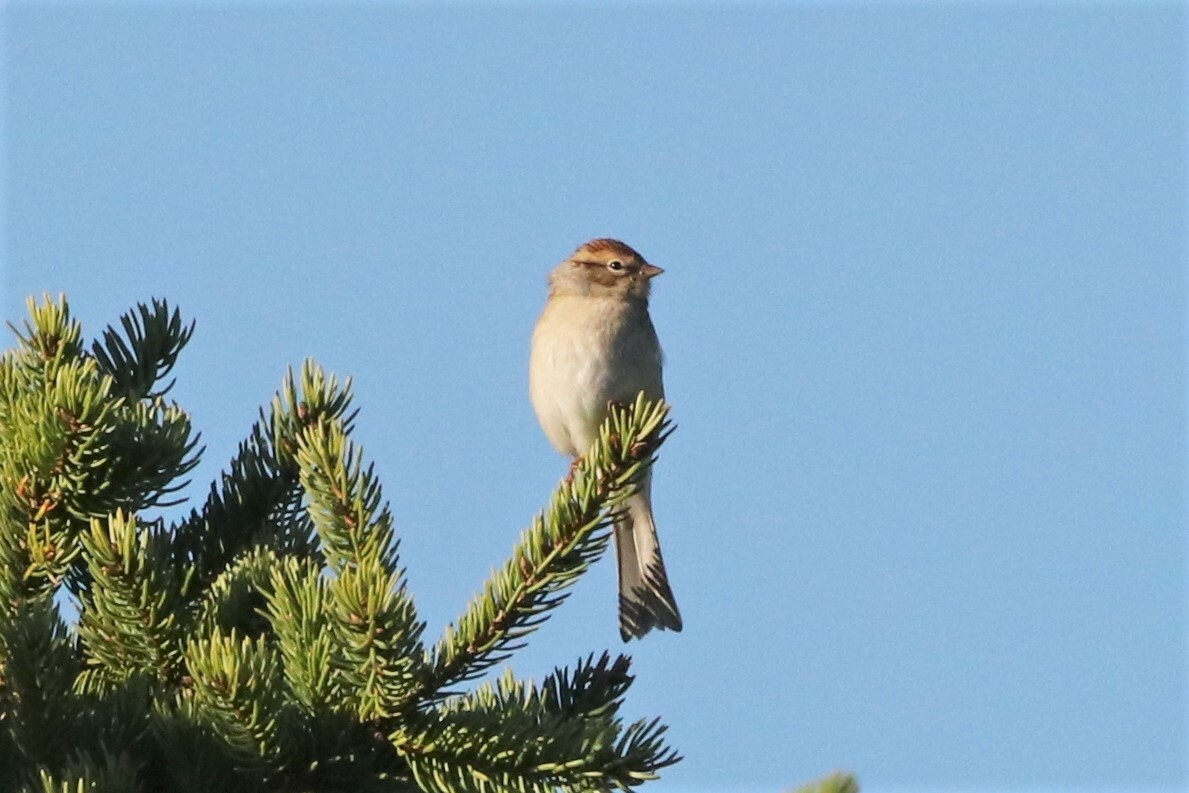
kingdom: Animalia
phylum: Chordata
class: Aves
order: Passeriformes
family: Passerellidae
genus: Spizella
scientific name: Spizella passerina
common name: Chipping sparrow
